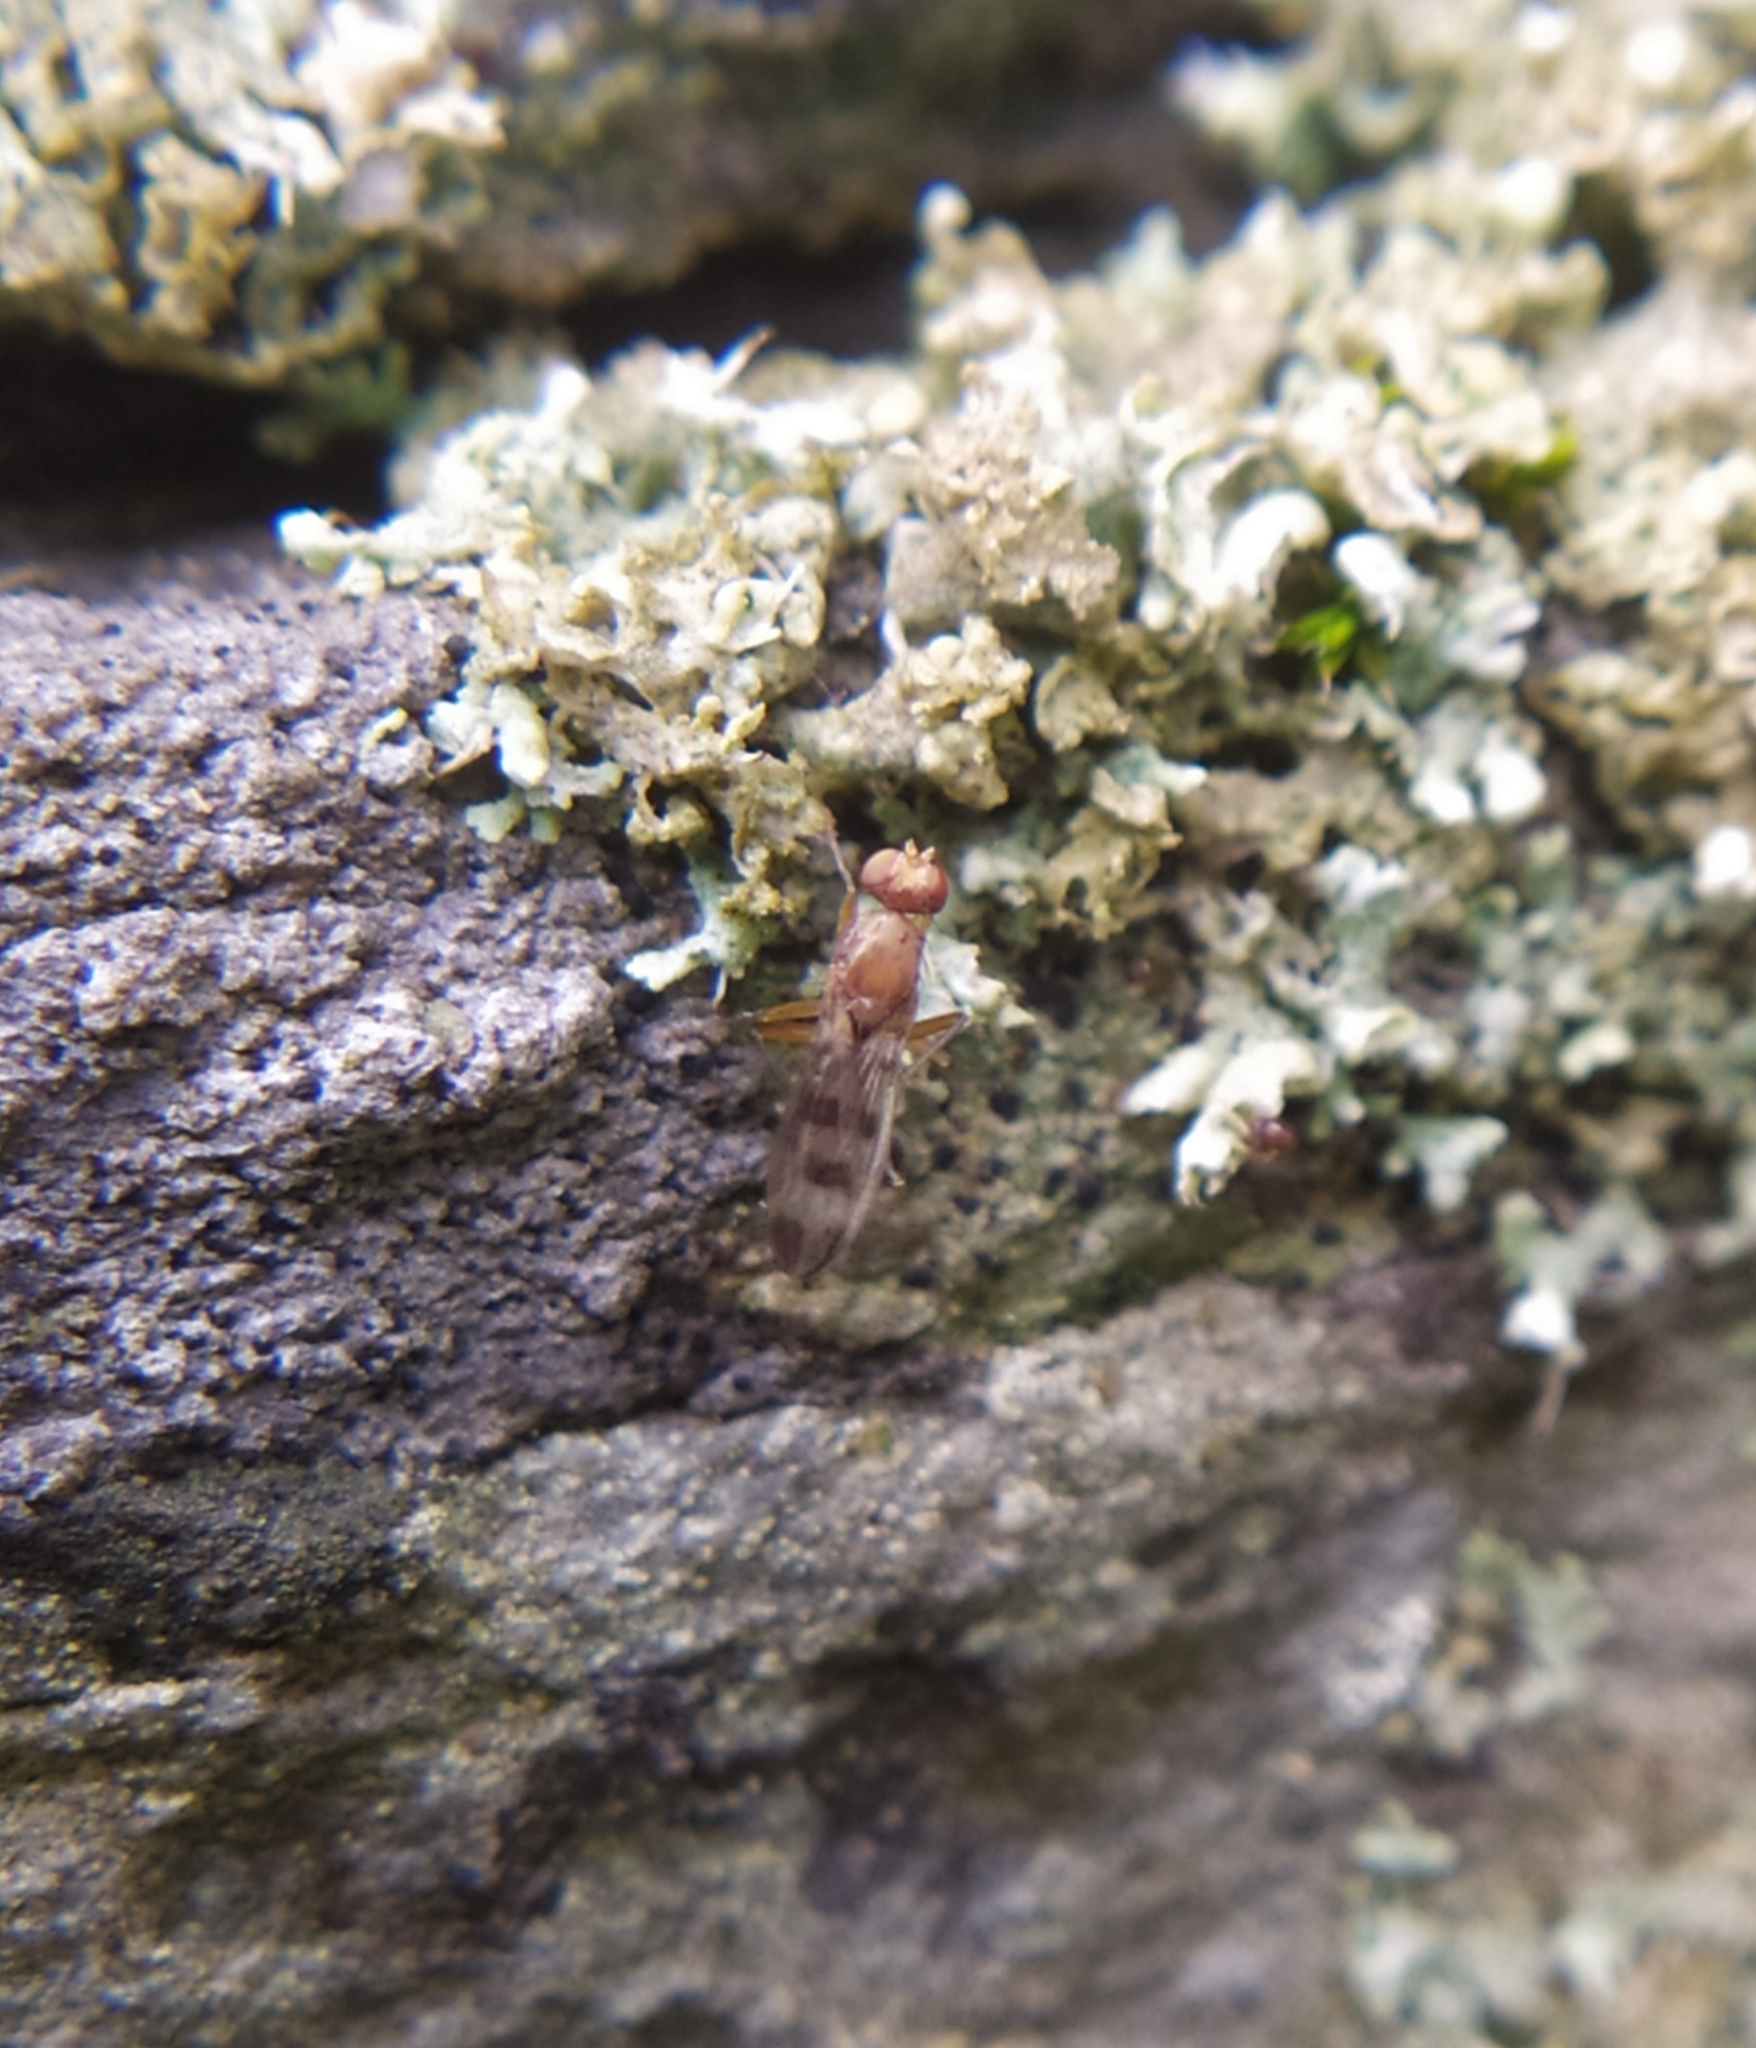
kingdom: Animalia
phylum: Arthropoda
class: Insecta
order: Diptera
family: Opomyzidae
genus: Geomyza
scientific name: Geomyza tripunctata
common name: Cereal fly
